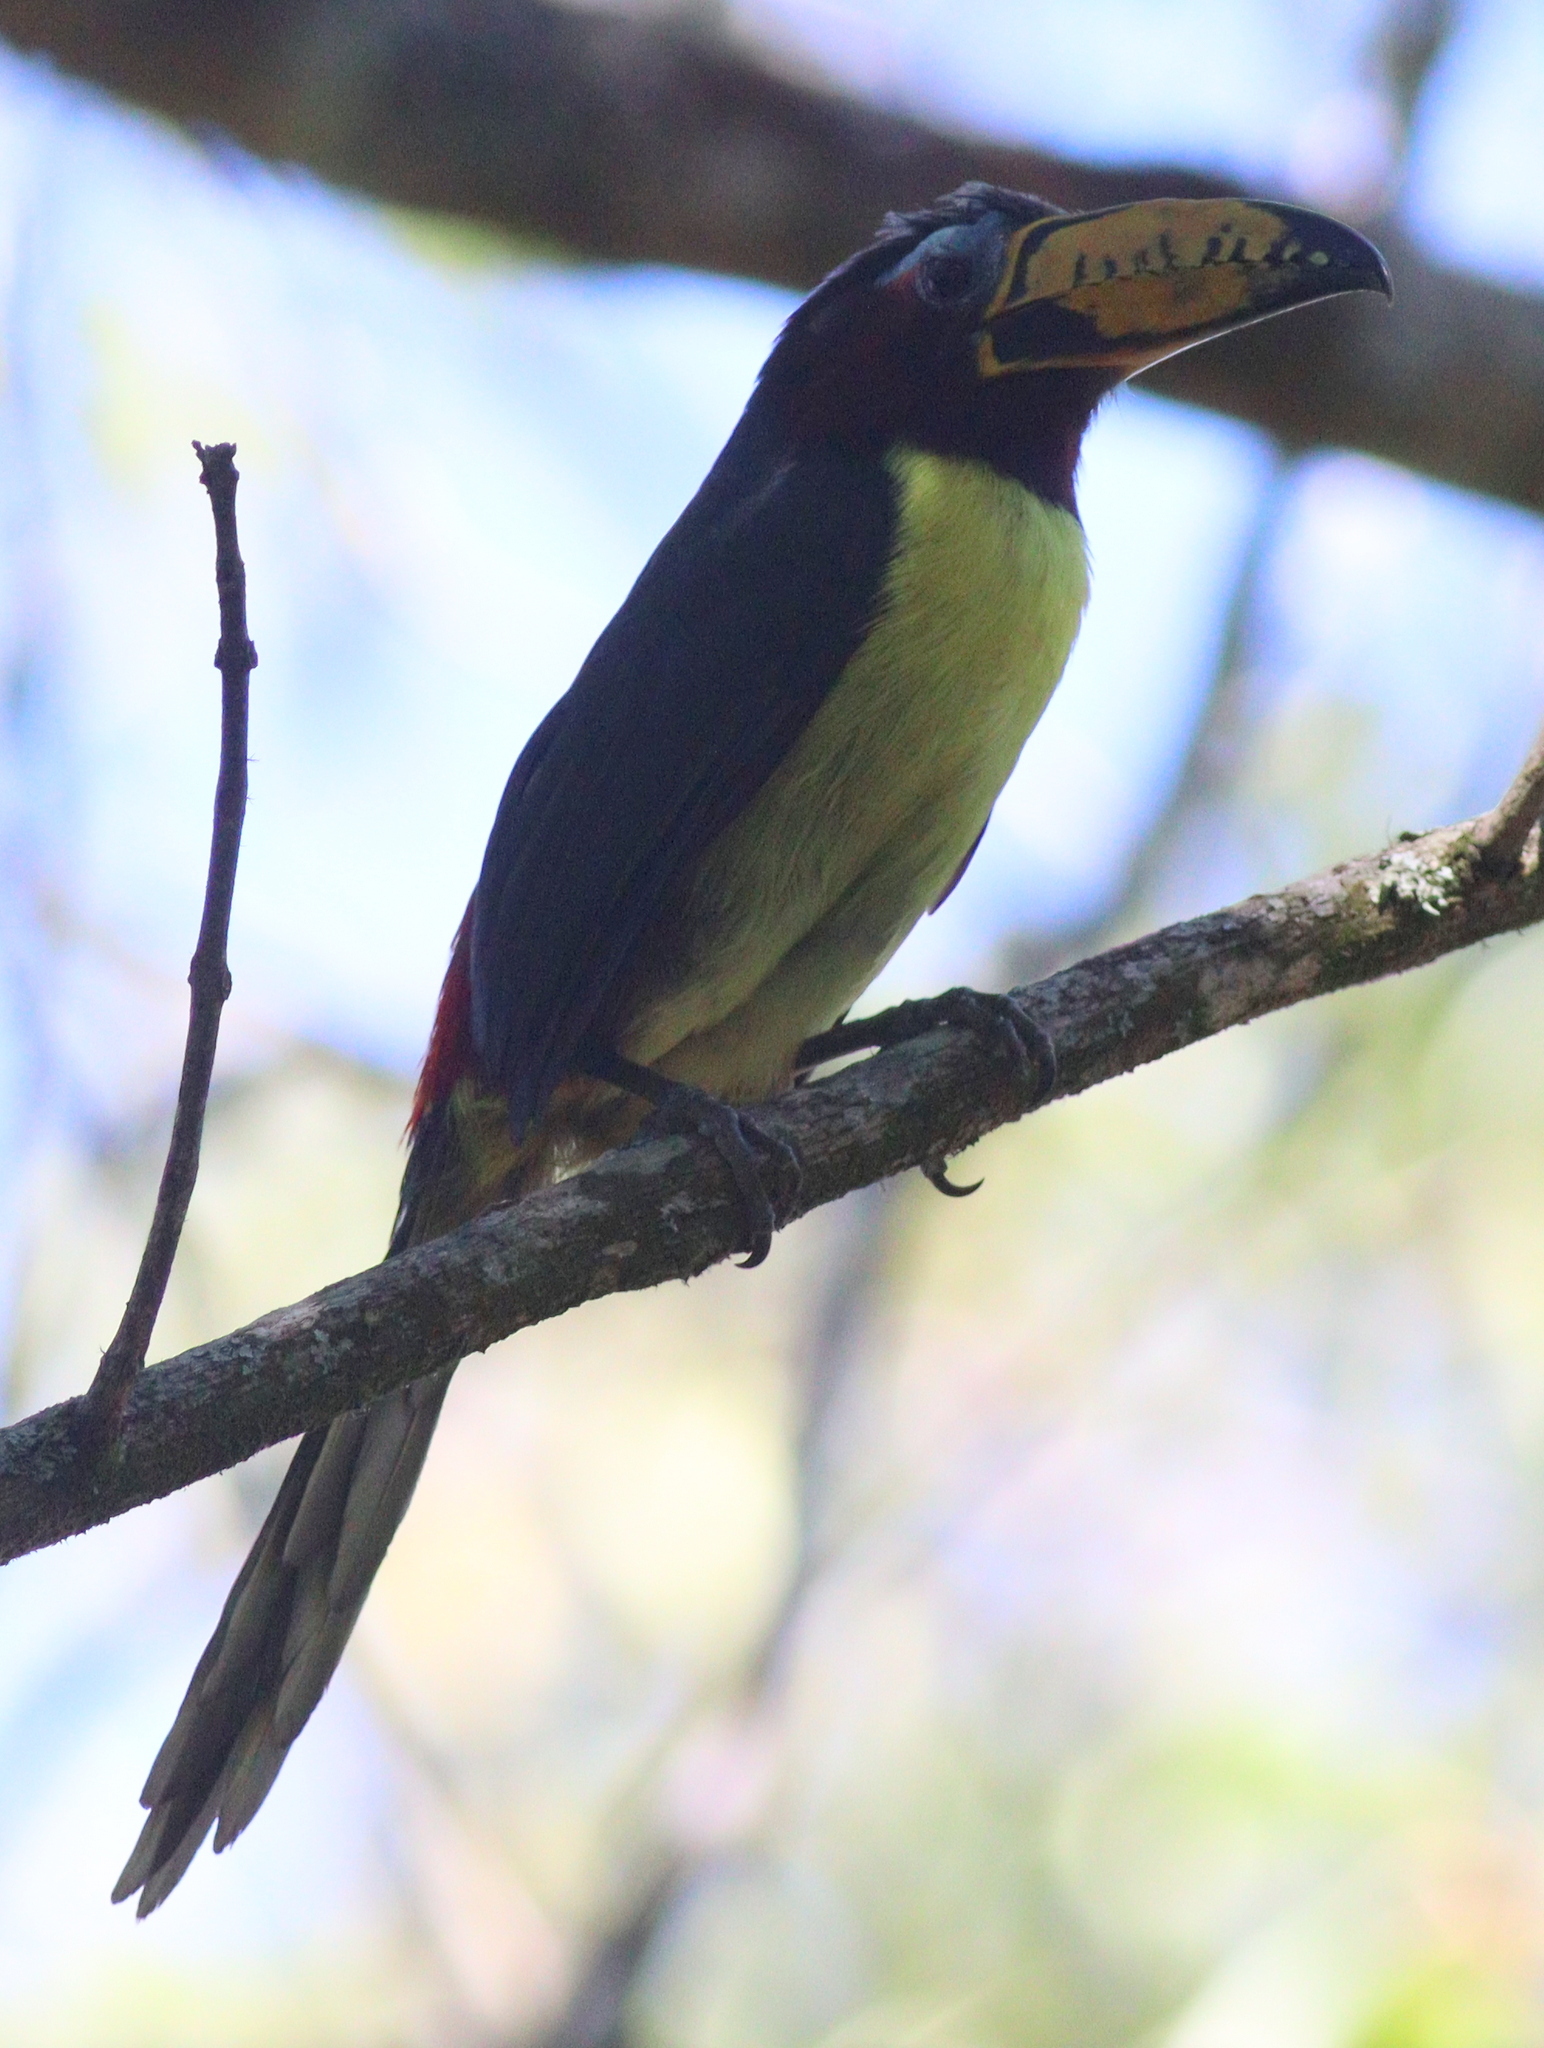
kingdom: Animalia
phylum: Chordata
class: Aves
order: Piciformes
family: Ramphastidae
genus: Pteroglossus
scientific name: Pteroglossus inscriptus
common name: Lettered aracari
